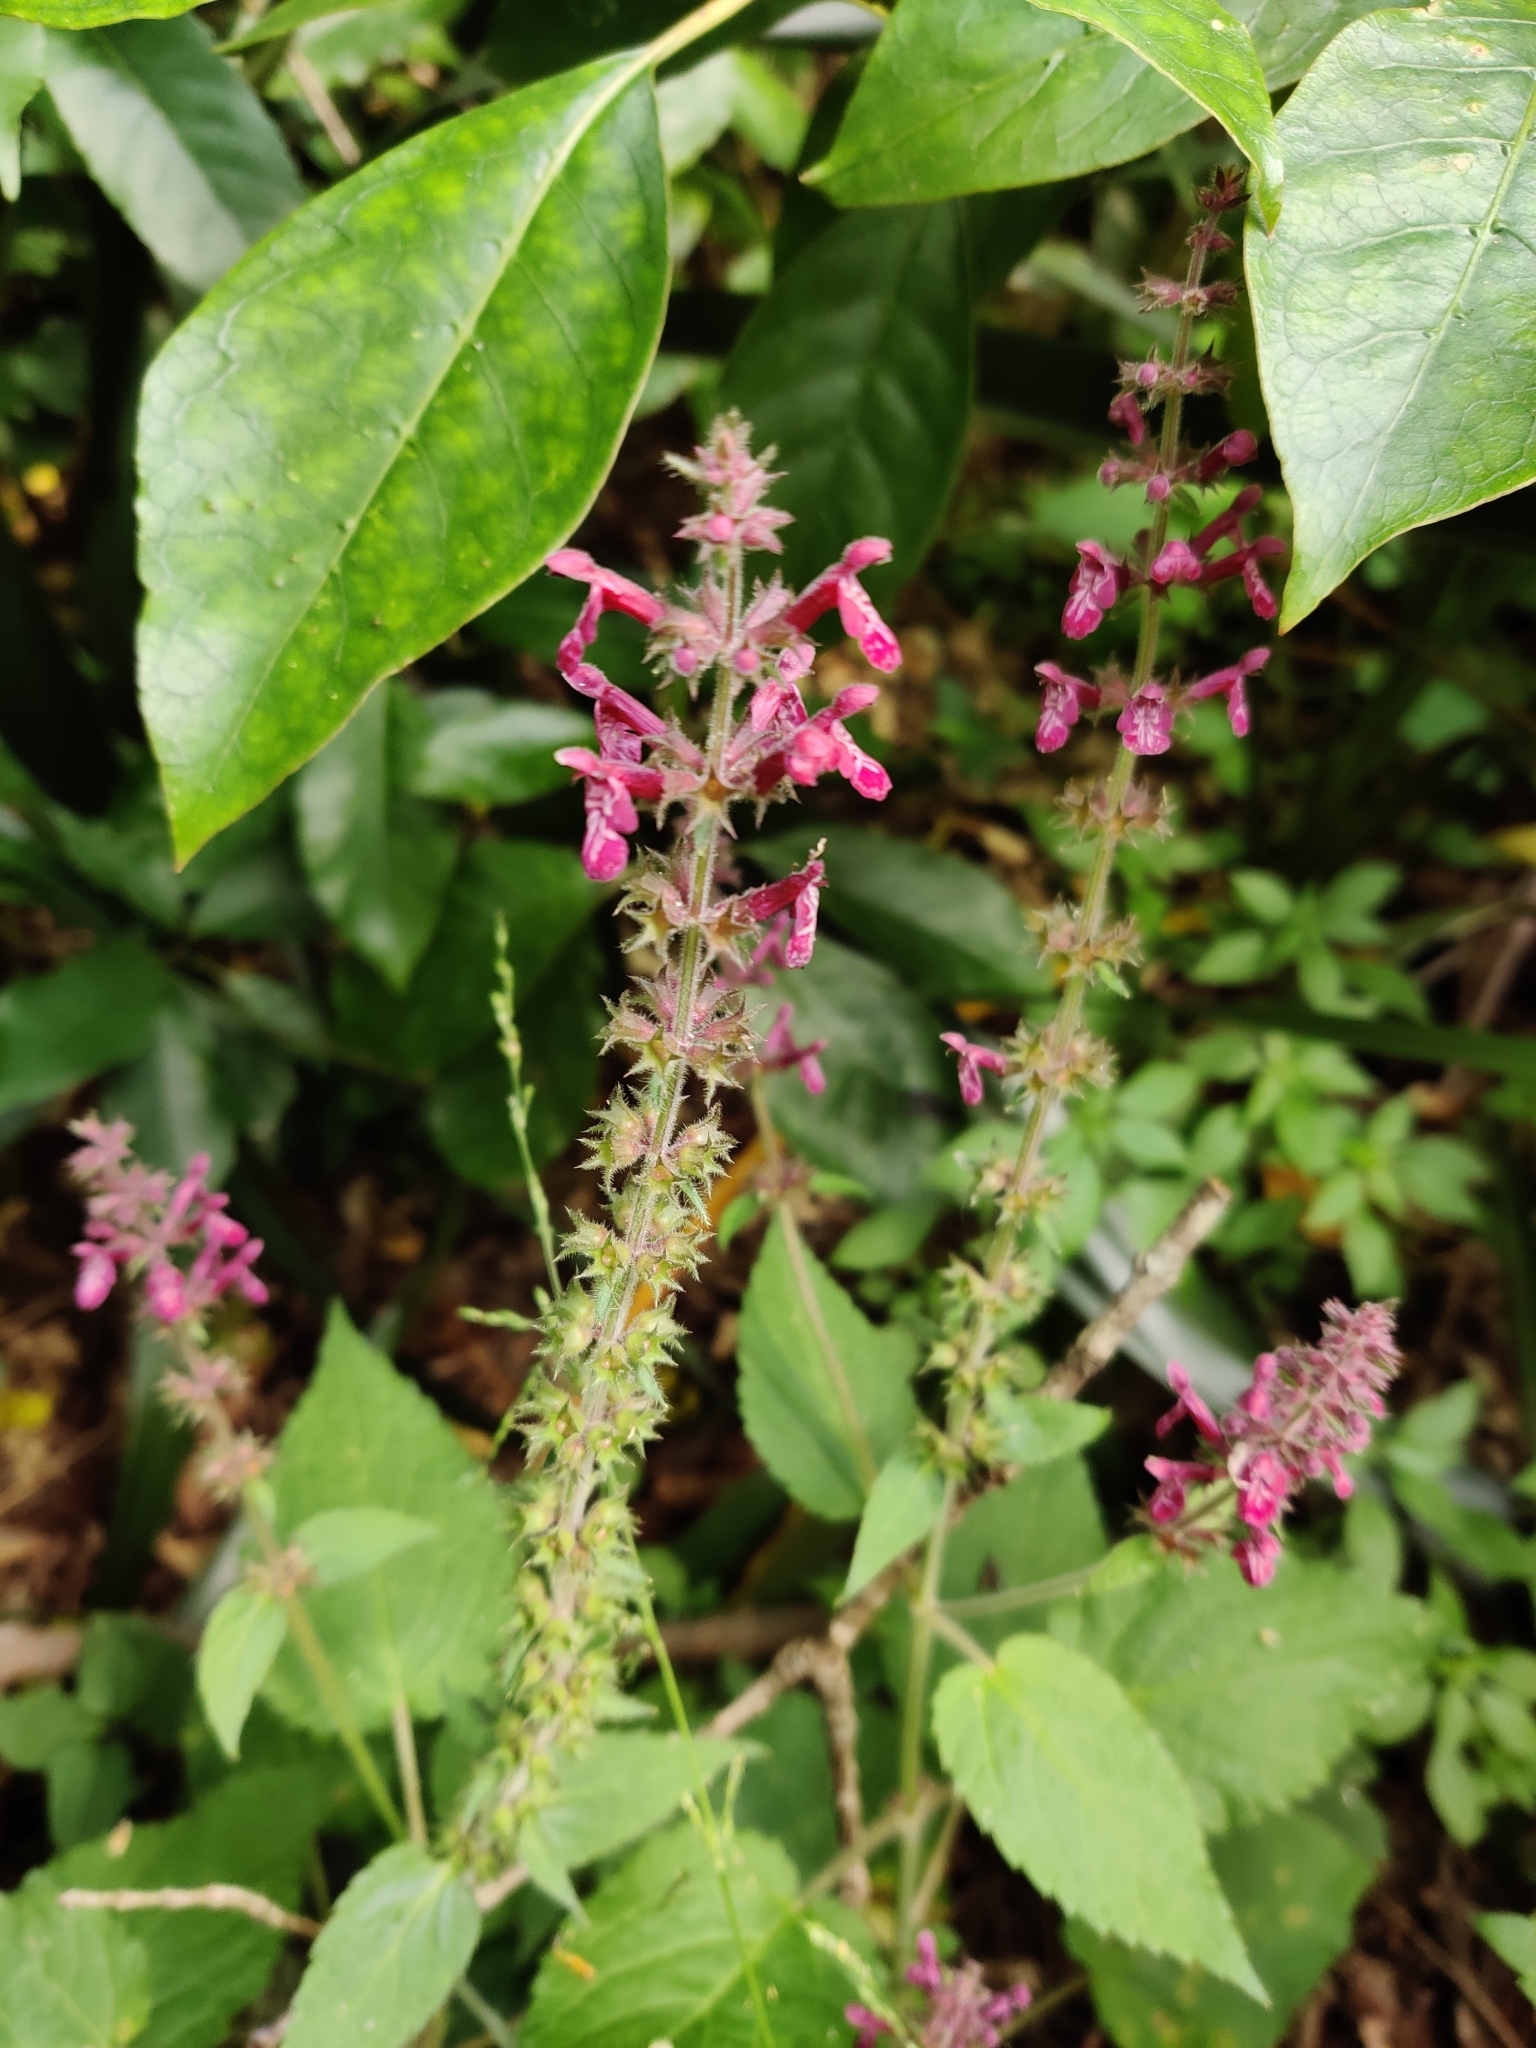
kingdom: Plantae
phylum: Tracheophyta
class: Magnoliopsida
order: Lamiales
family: Lamiaceae
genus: Stachys
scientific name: Stachys sylvatica
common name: Hedge woundwort
